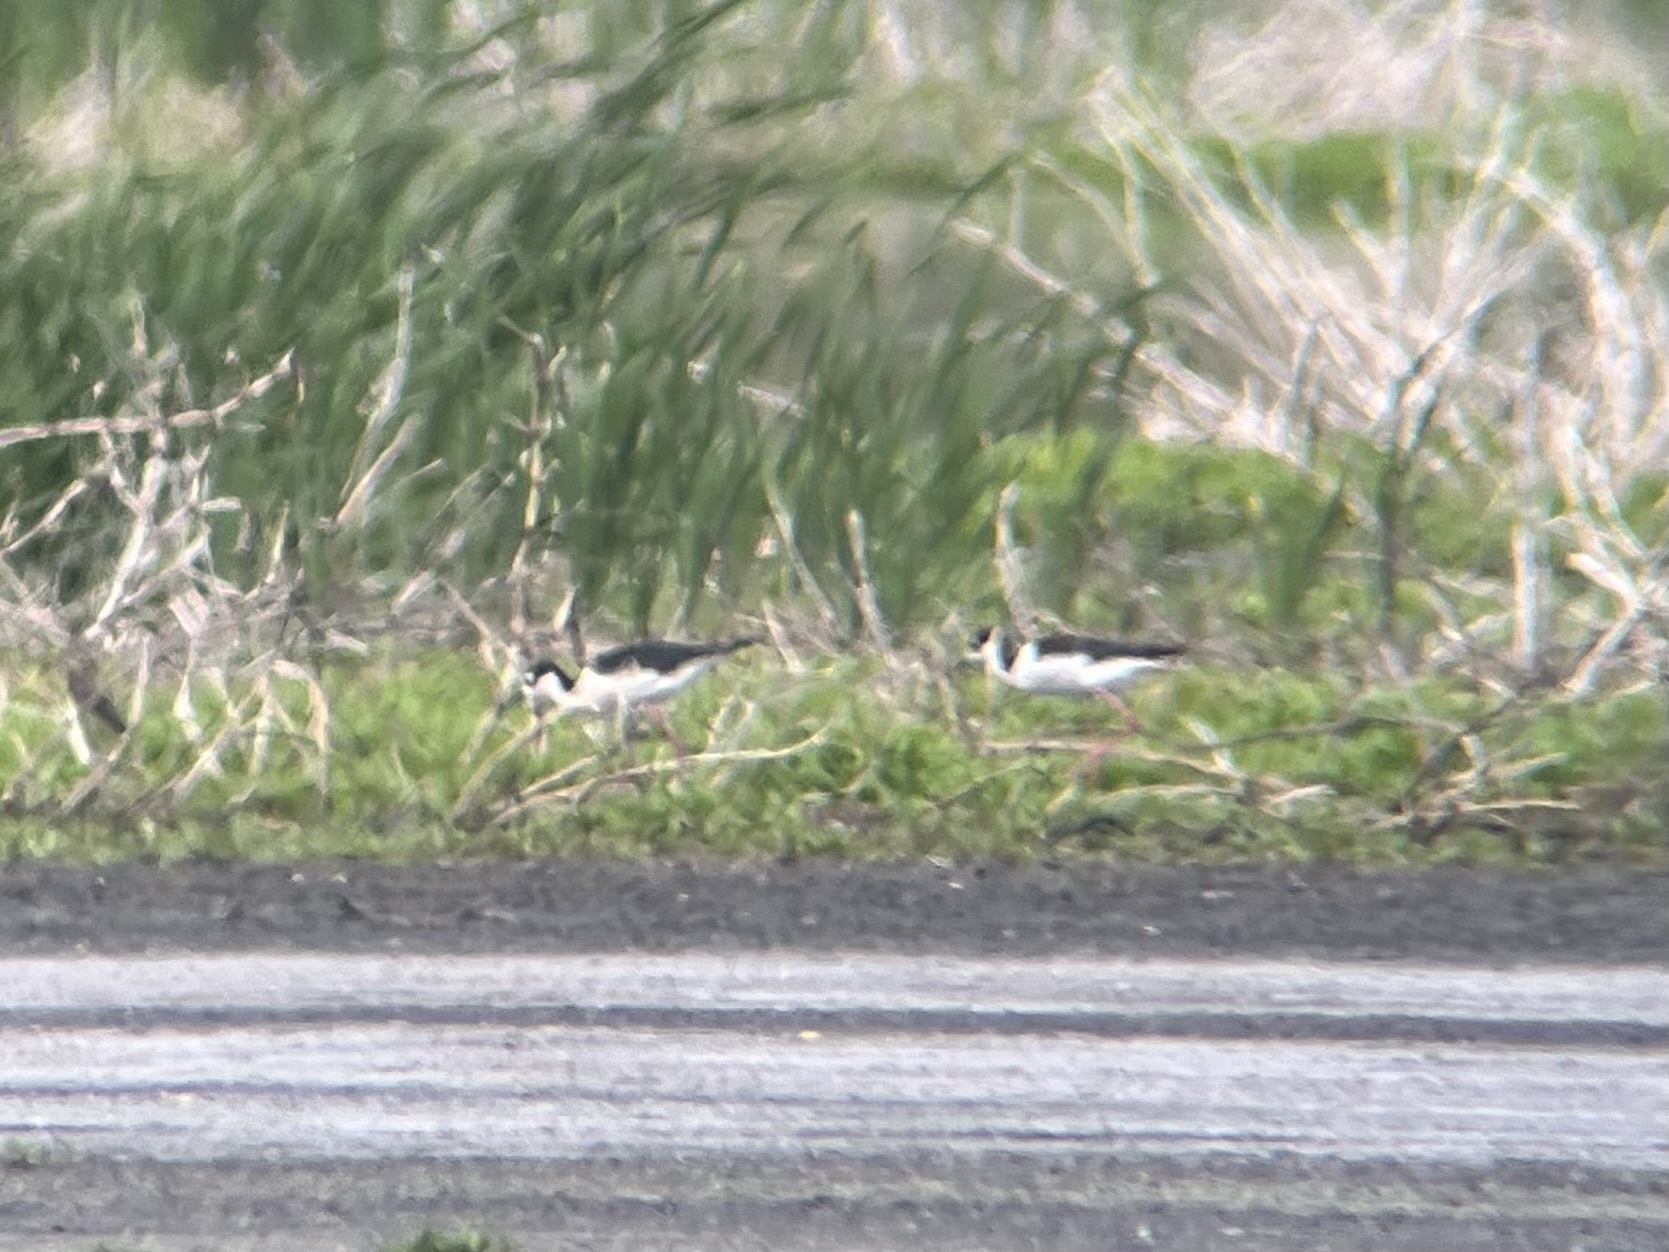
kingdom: Animalia
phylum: Chordata
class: Aves
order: Charadriiformes
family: Recurvirostridae
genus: Himantopus
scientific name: Himantopus mexicanus
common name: Black-necked stilt
